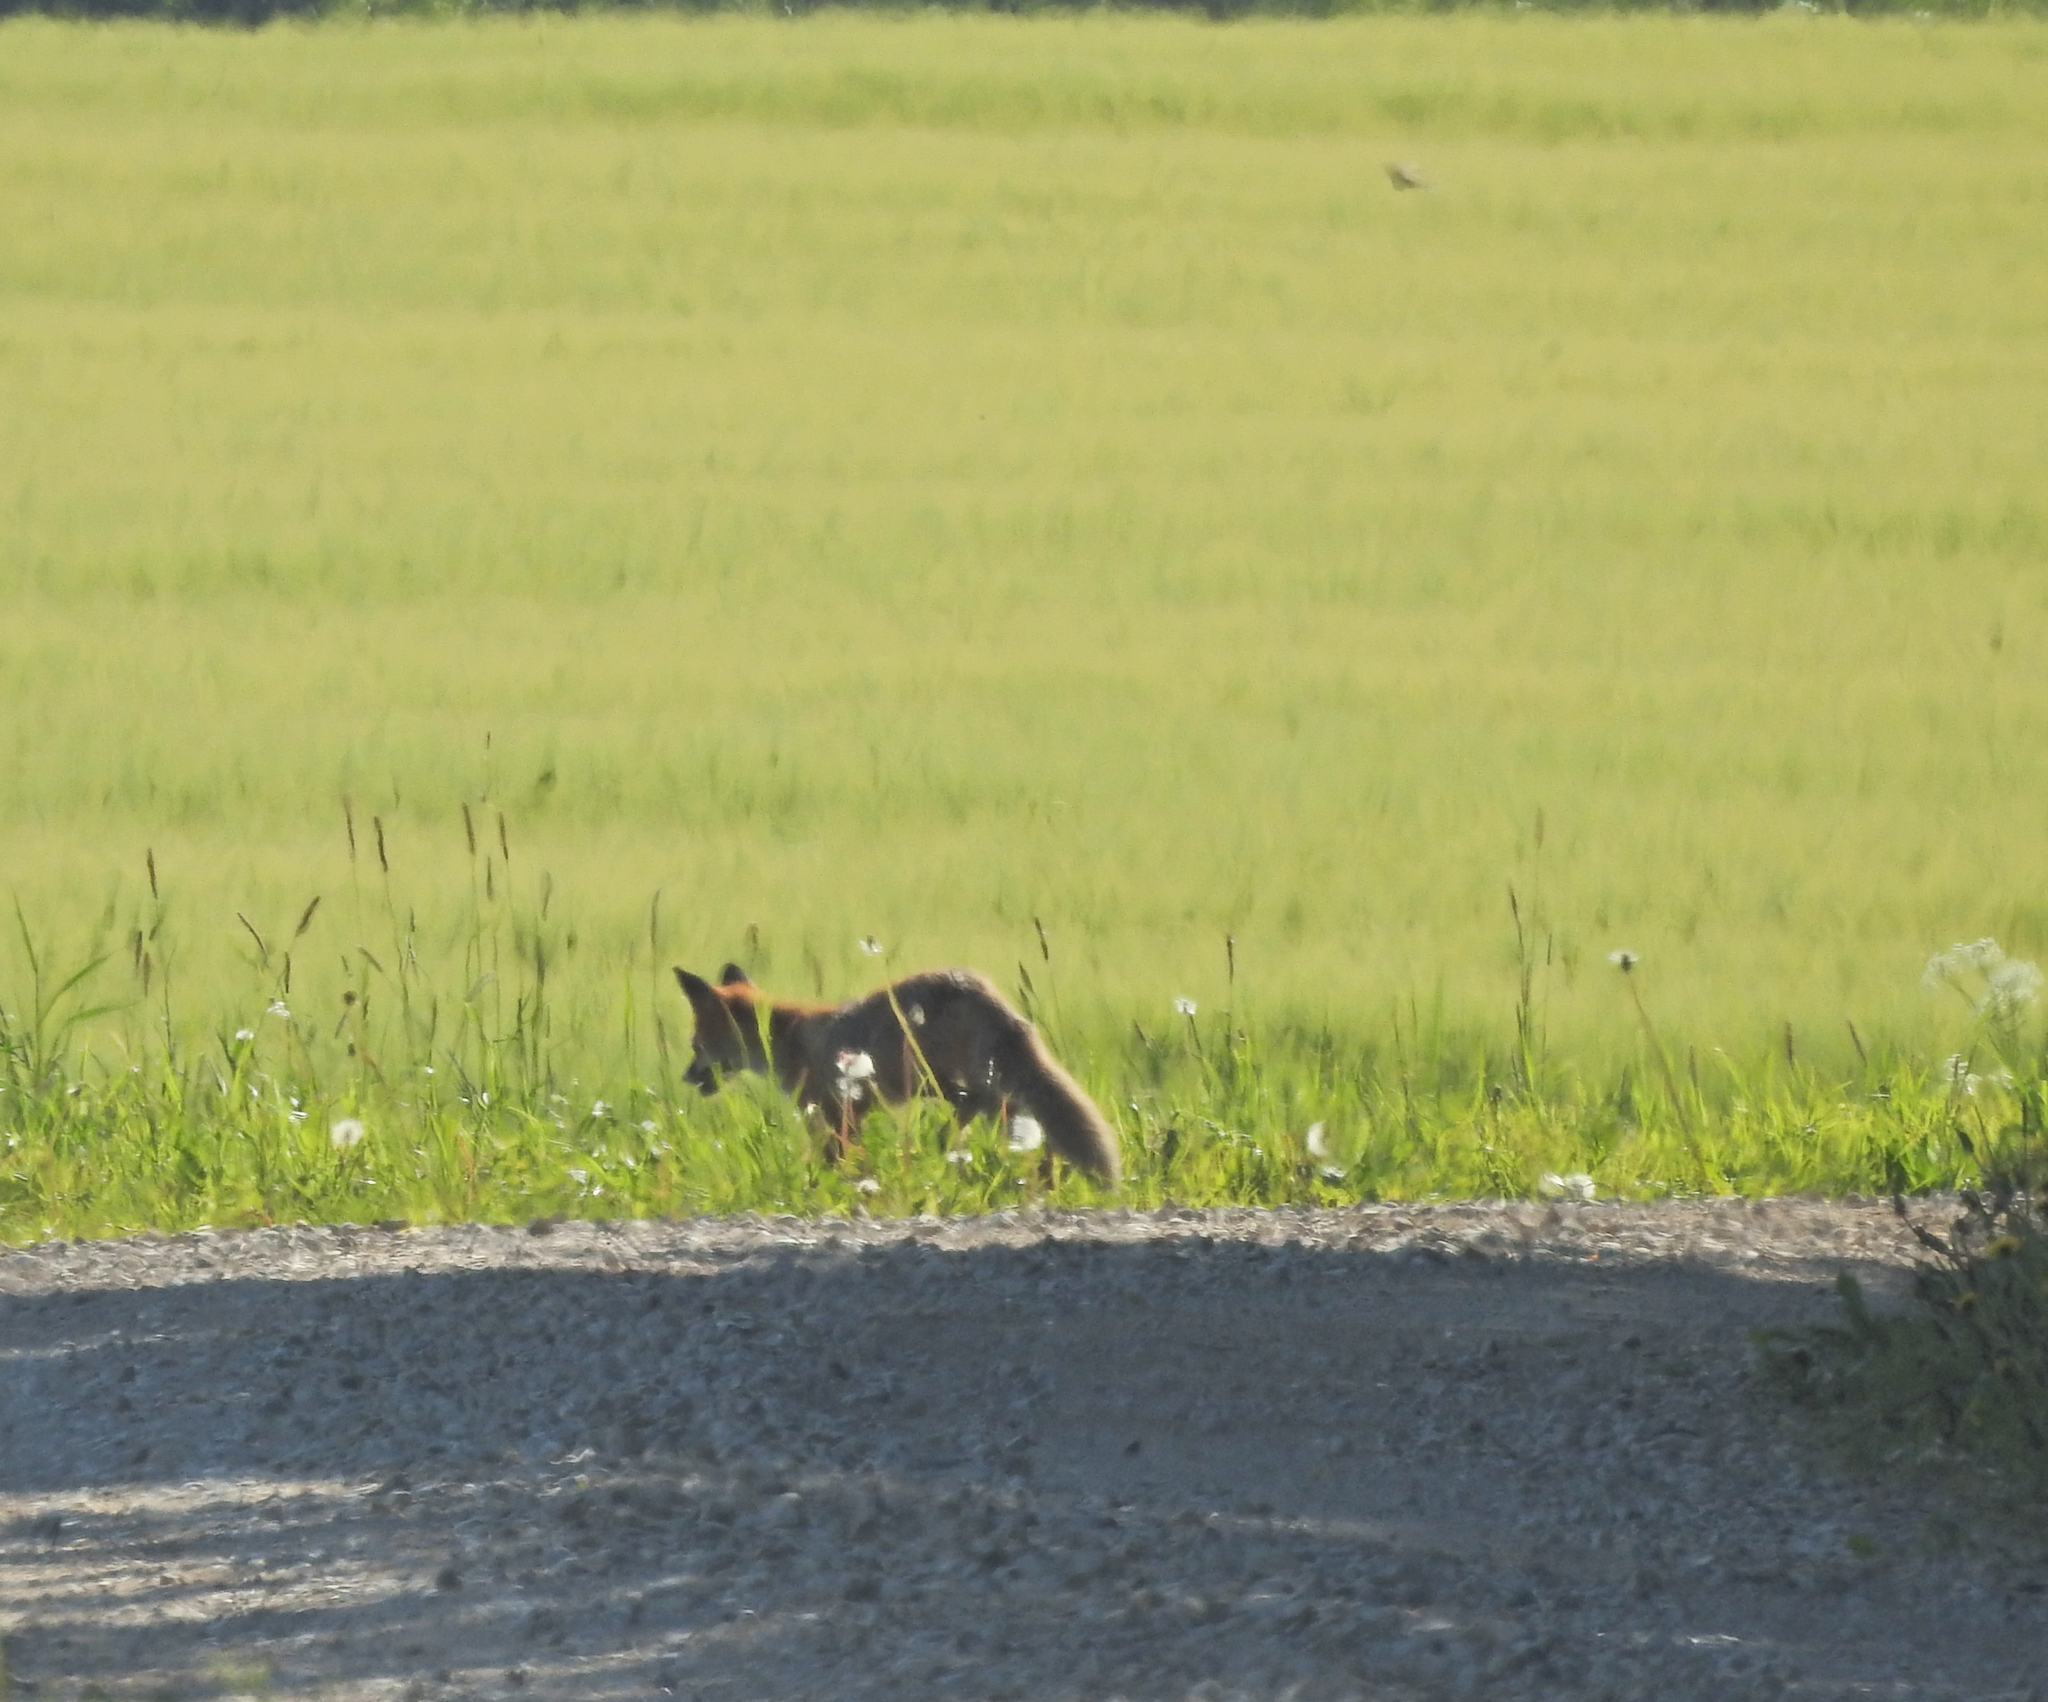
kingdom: Animalia
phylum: Chordata
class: Mammalia
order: Carnivora
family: Canidae
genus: Vulpes
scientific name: Vulpes vulpes
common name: Red fox
